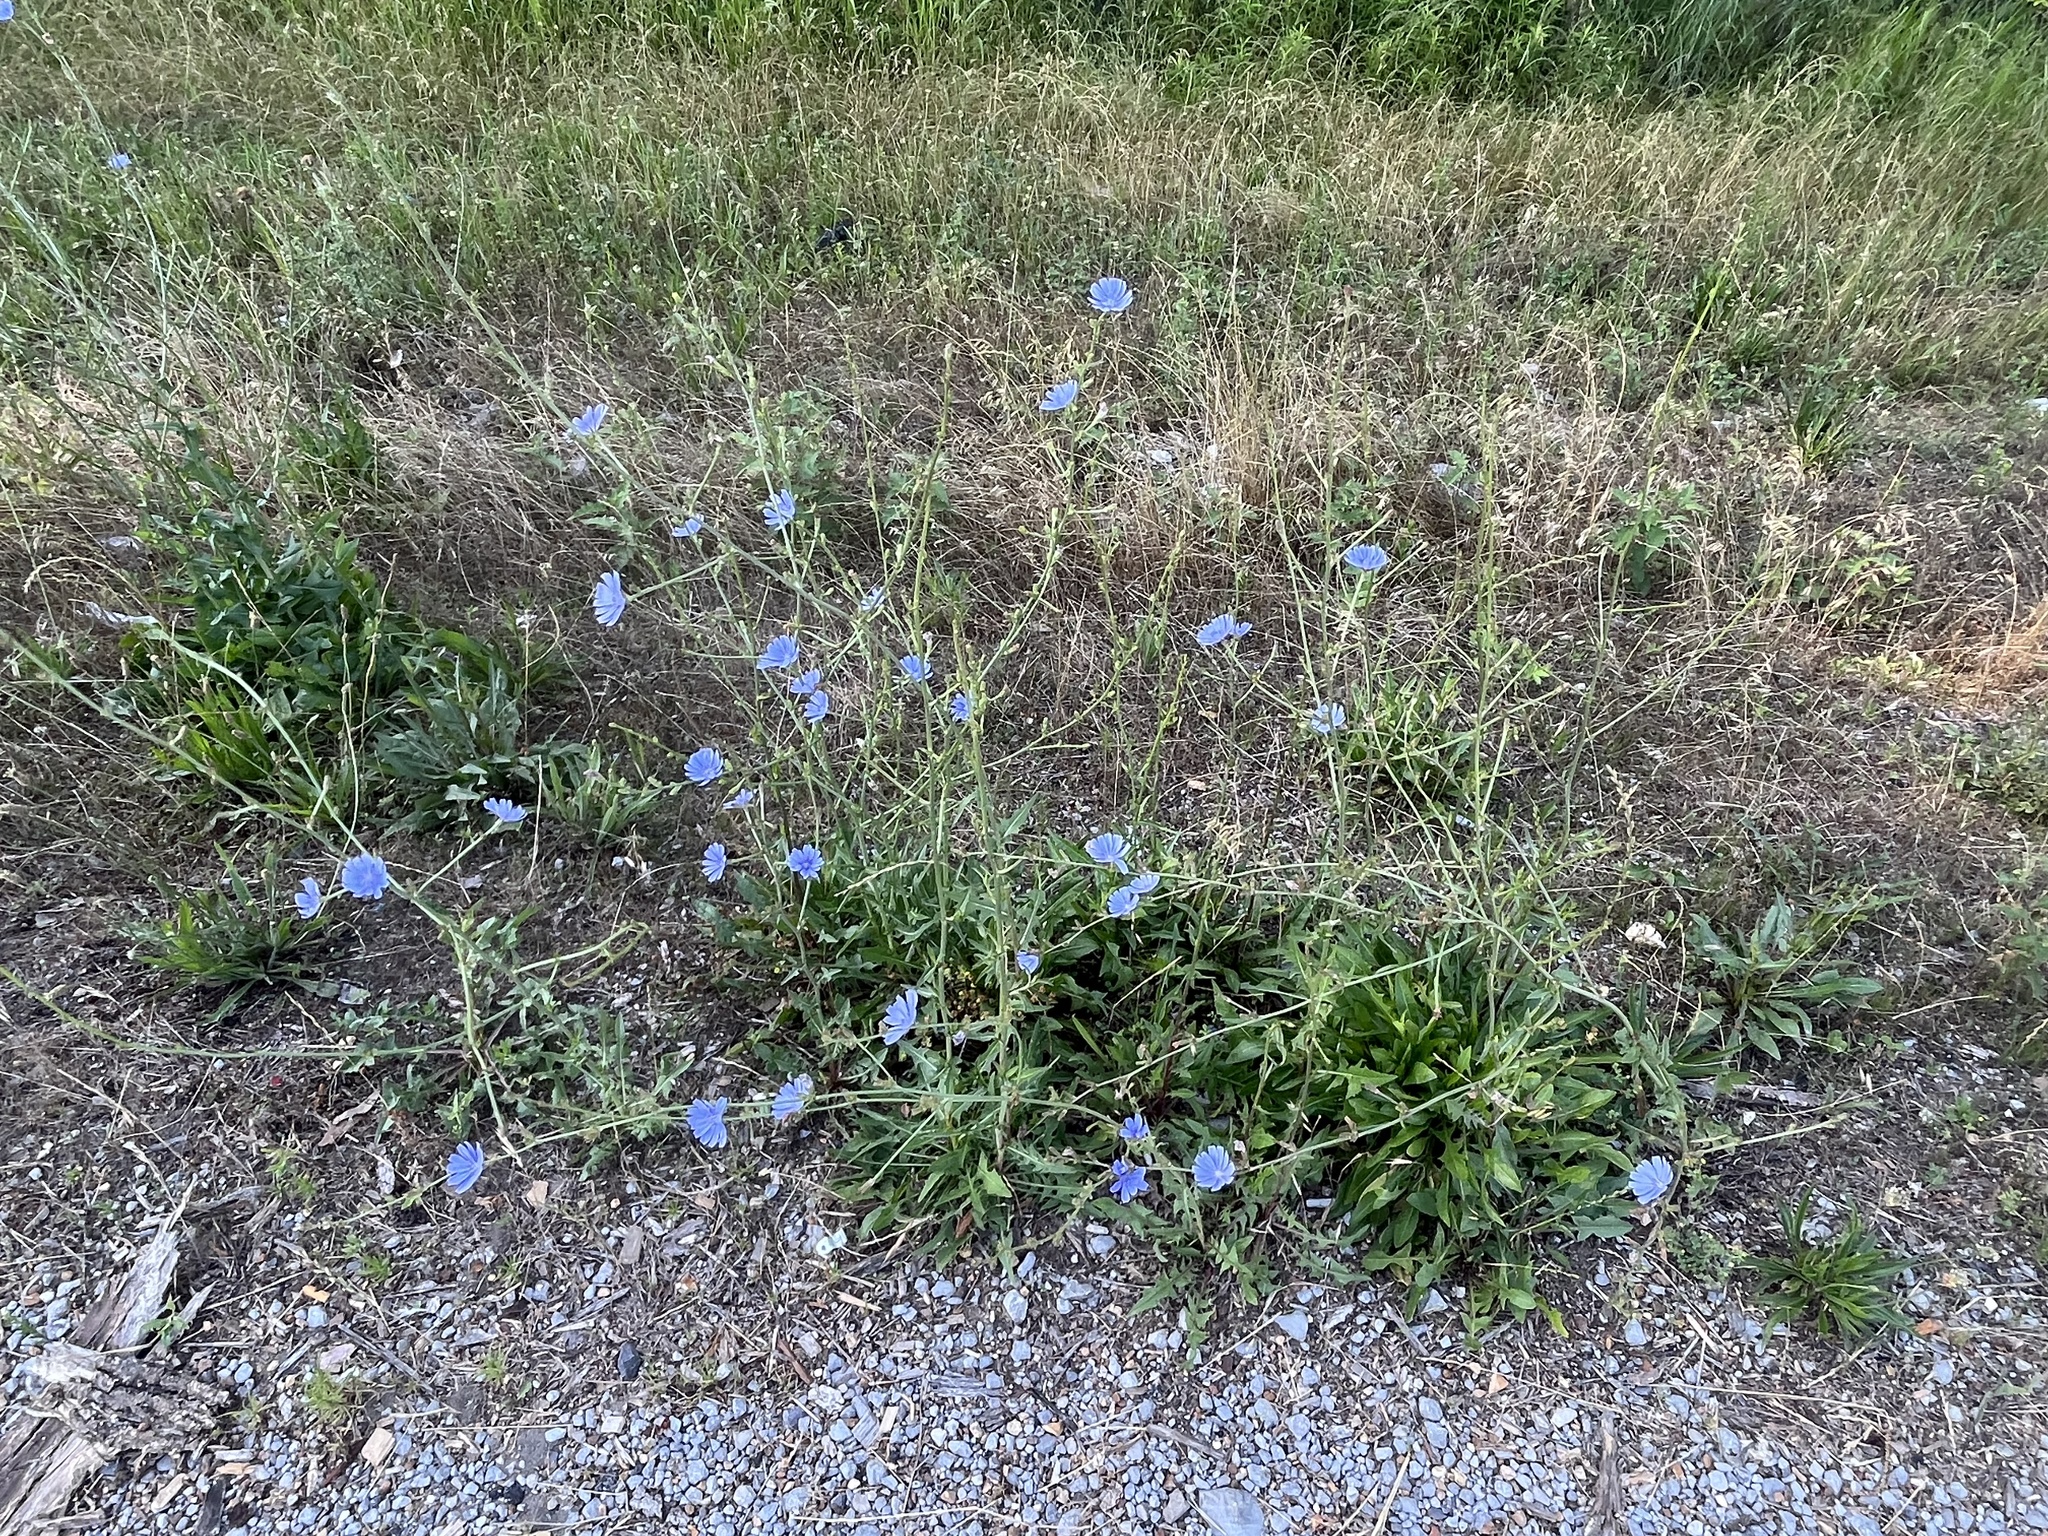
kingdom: Plantae
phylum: Tracheophyta
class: Magnoliopsida
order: Asterales
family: Asteraceae
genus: Cichorium
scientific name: Cichorium intybus
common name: Chicory
